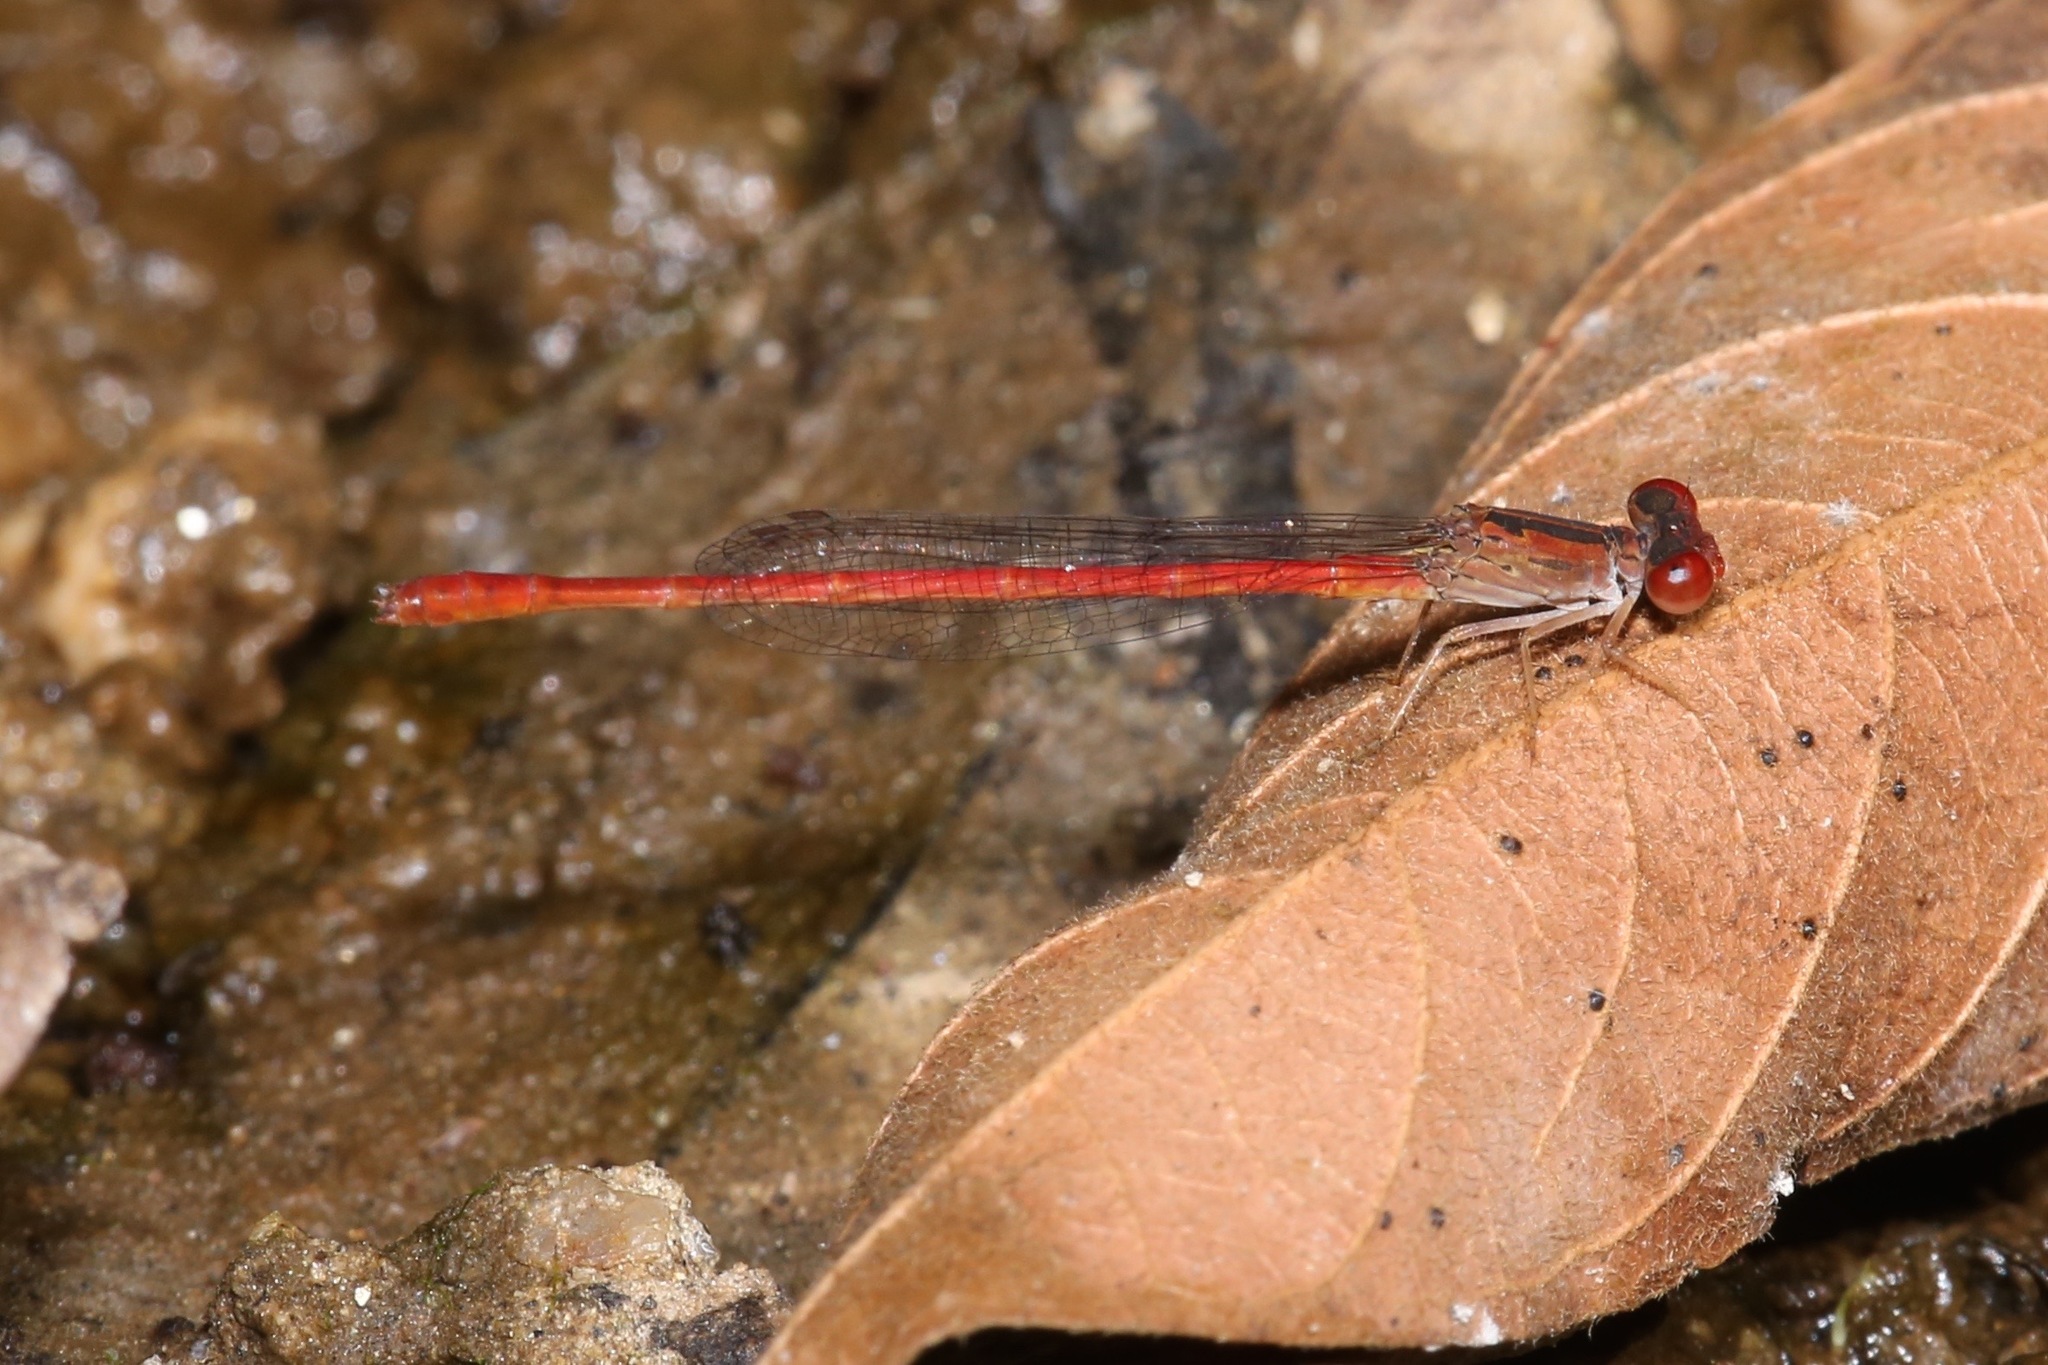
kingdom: Animalia
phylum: Arthropoda
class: Insecta
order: Odonata
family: Coenagrionidae
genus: Telebasis
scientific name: Telebasis salva
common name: Desert firetail
